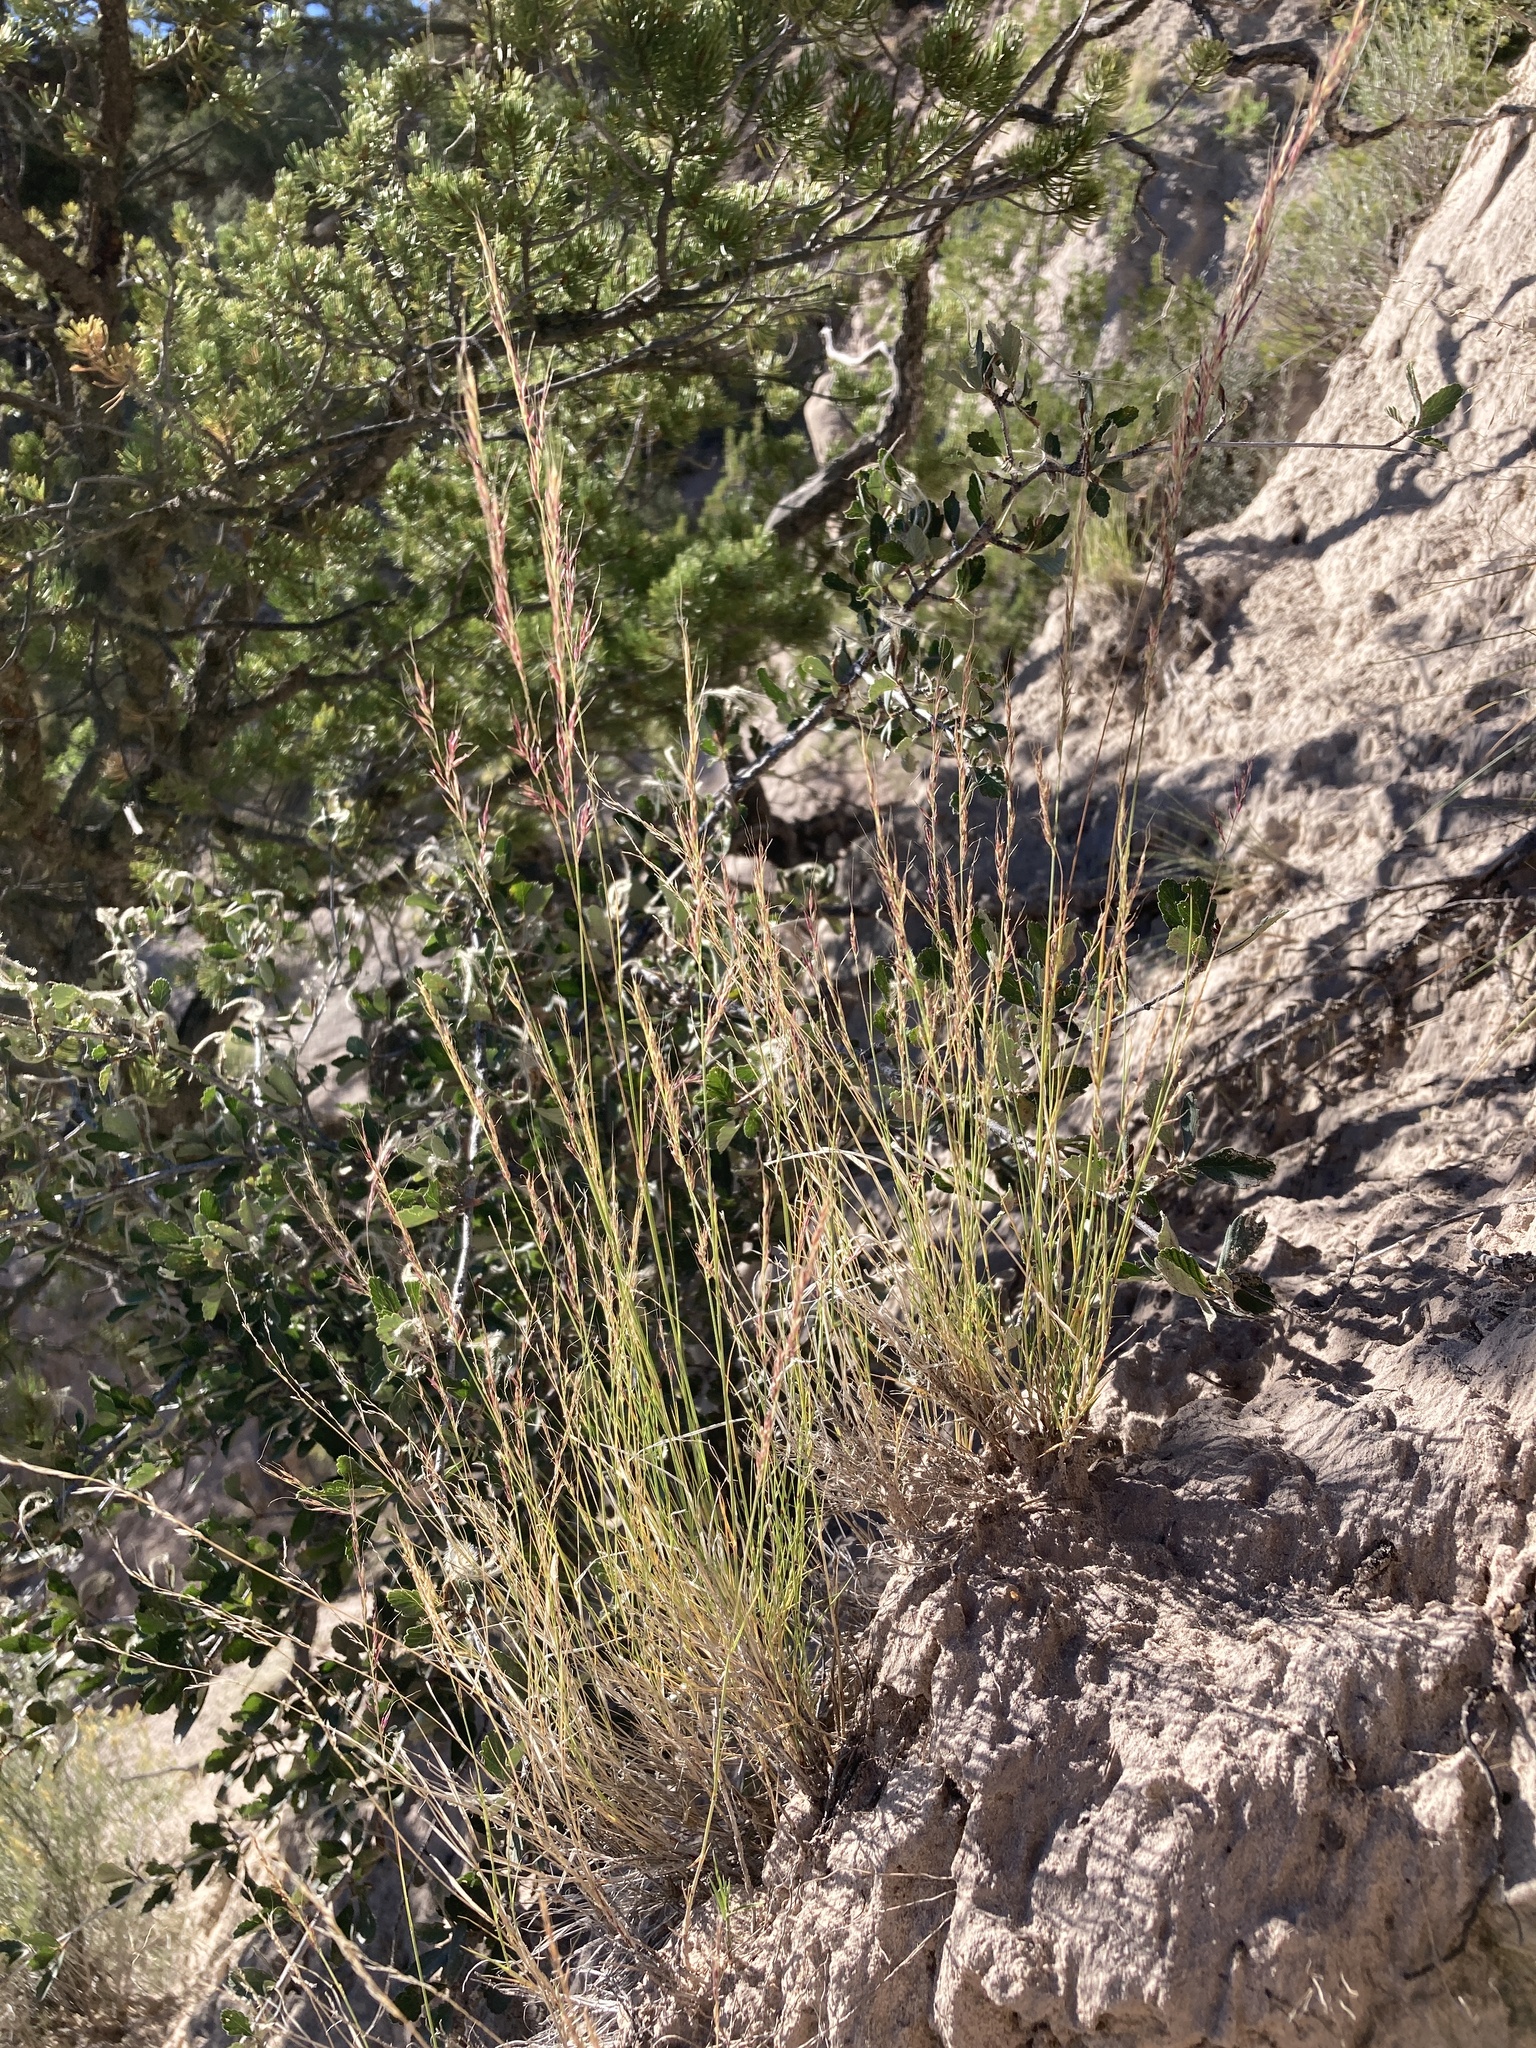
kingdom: Plantae
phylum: Tracheophyta
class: Liliopsida
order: Poales
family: Poaceae
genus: Muhlenbergia
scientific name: Muhlenbergia pauciflora
